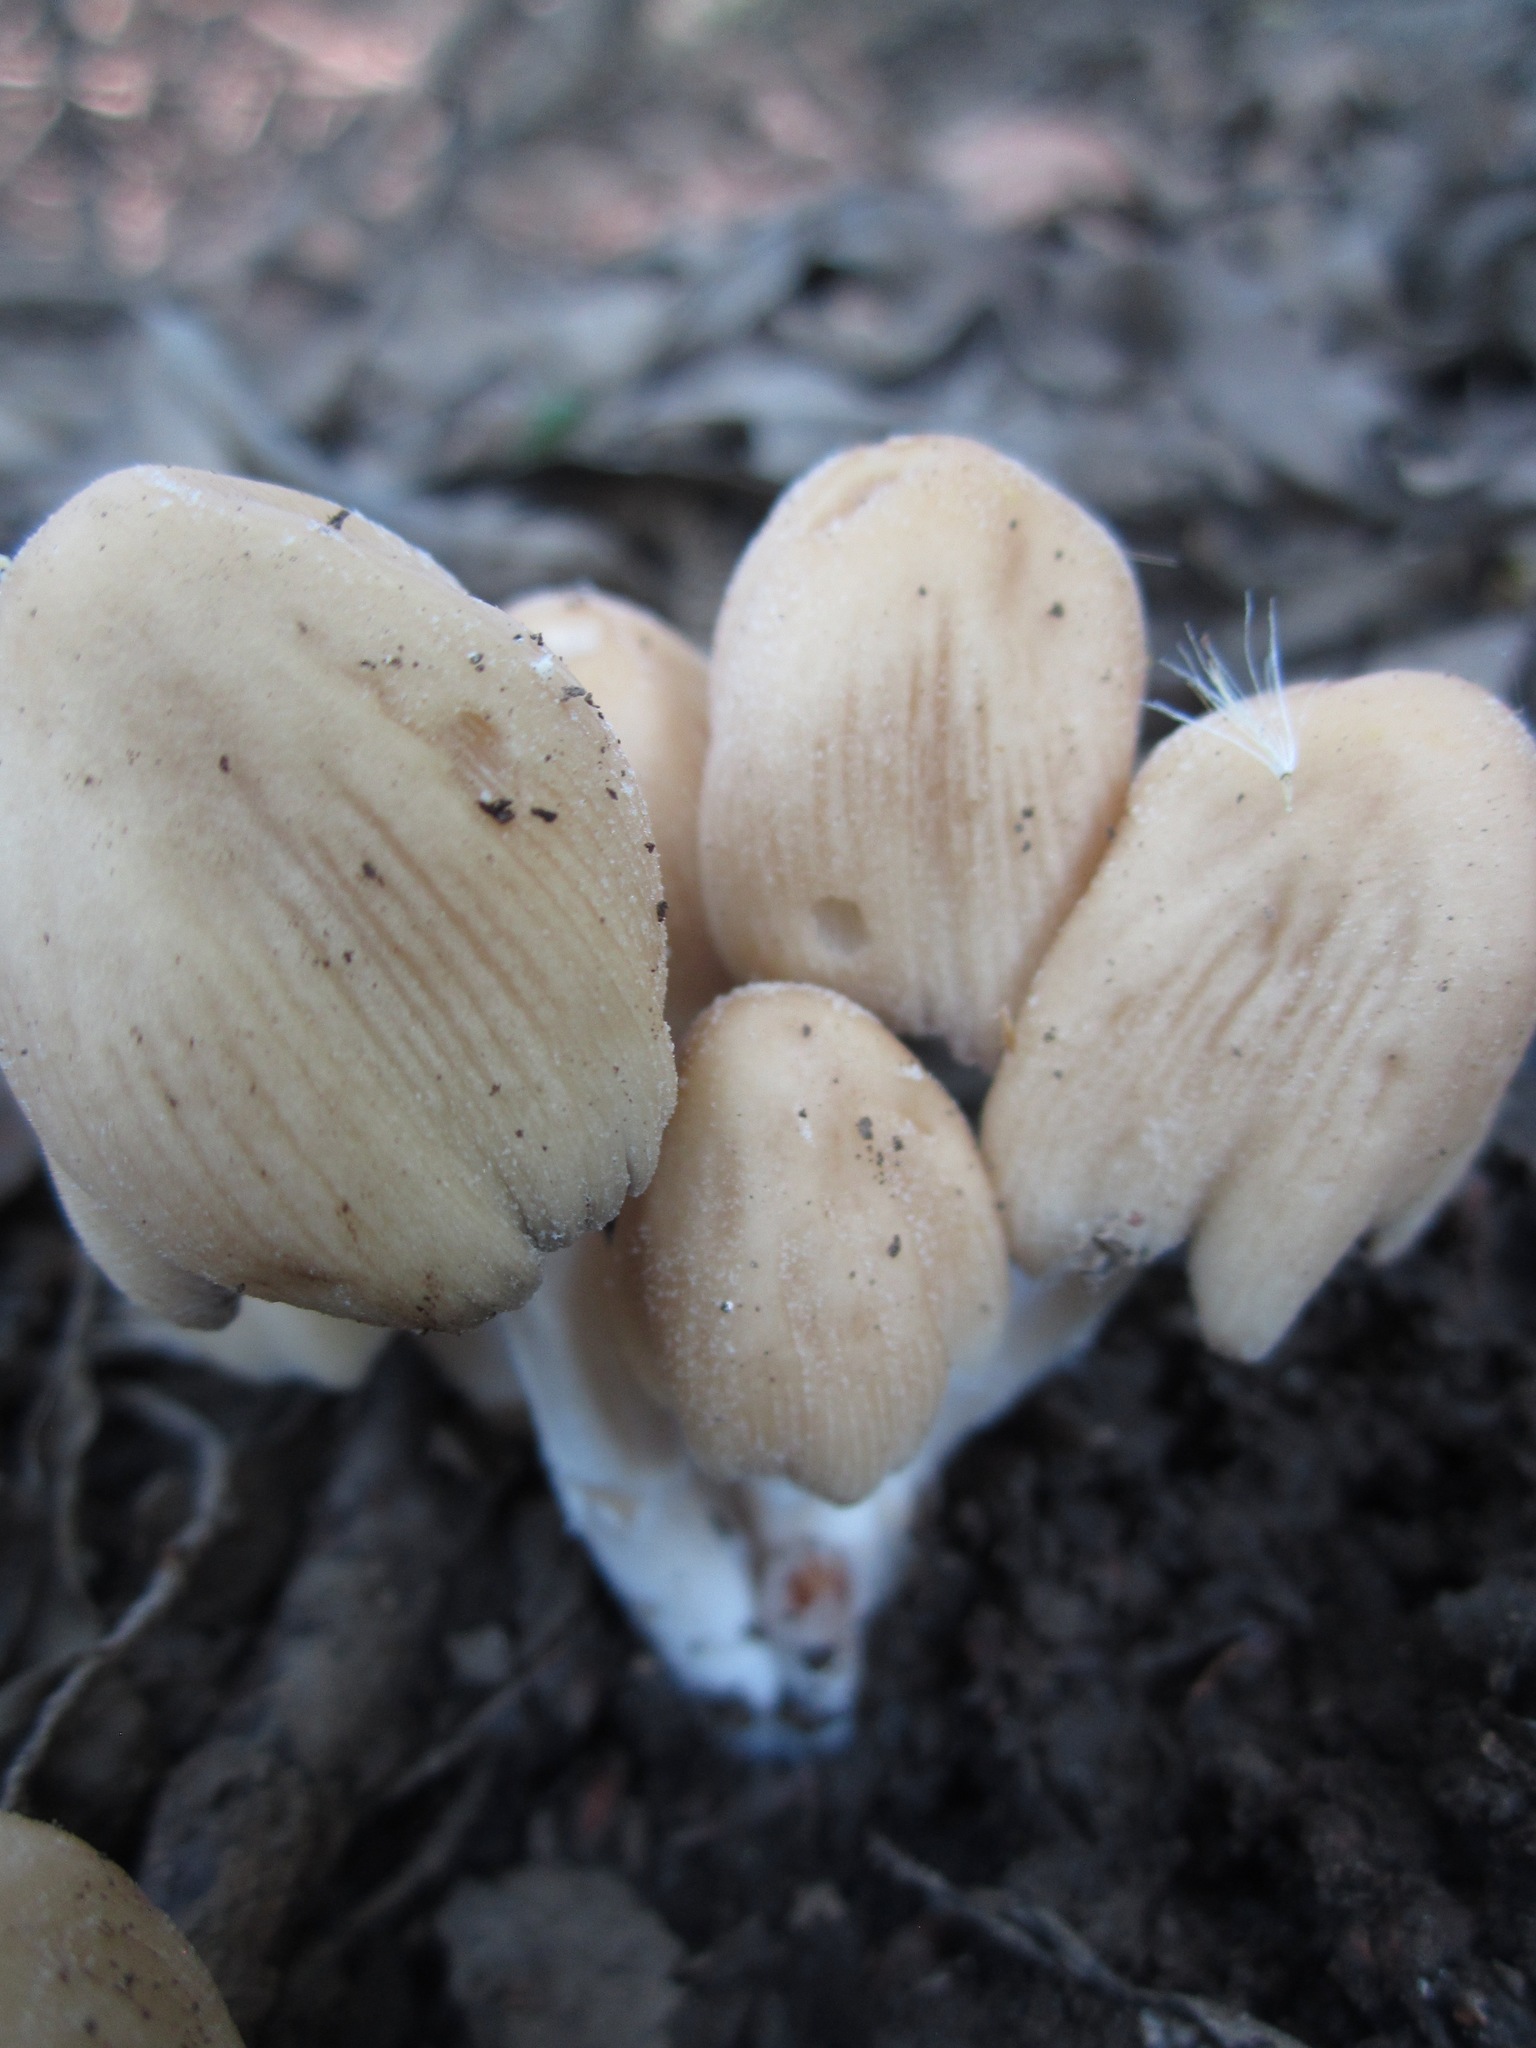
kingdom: Fungi
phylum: Basidiomycota
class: Agaricomycetes
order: Agaricales
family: Psathyrellaceae
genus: Coprinellus
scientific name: Coprinellus micaceus
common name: Glistening ink-cap
